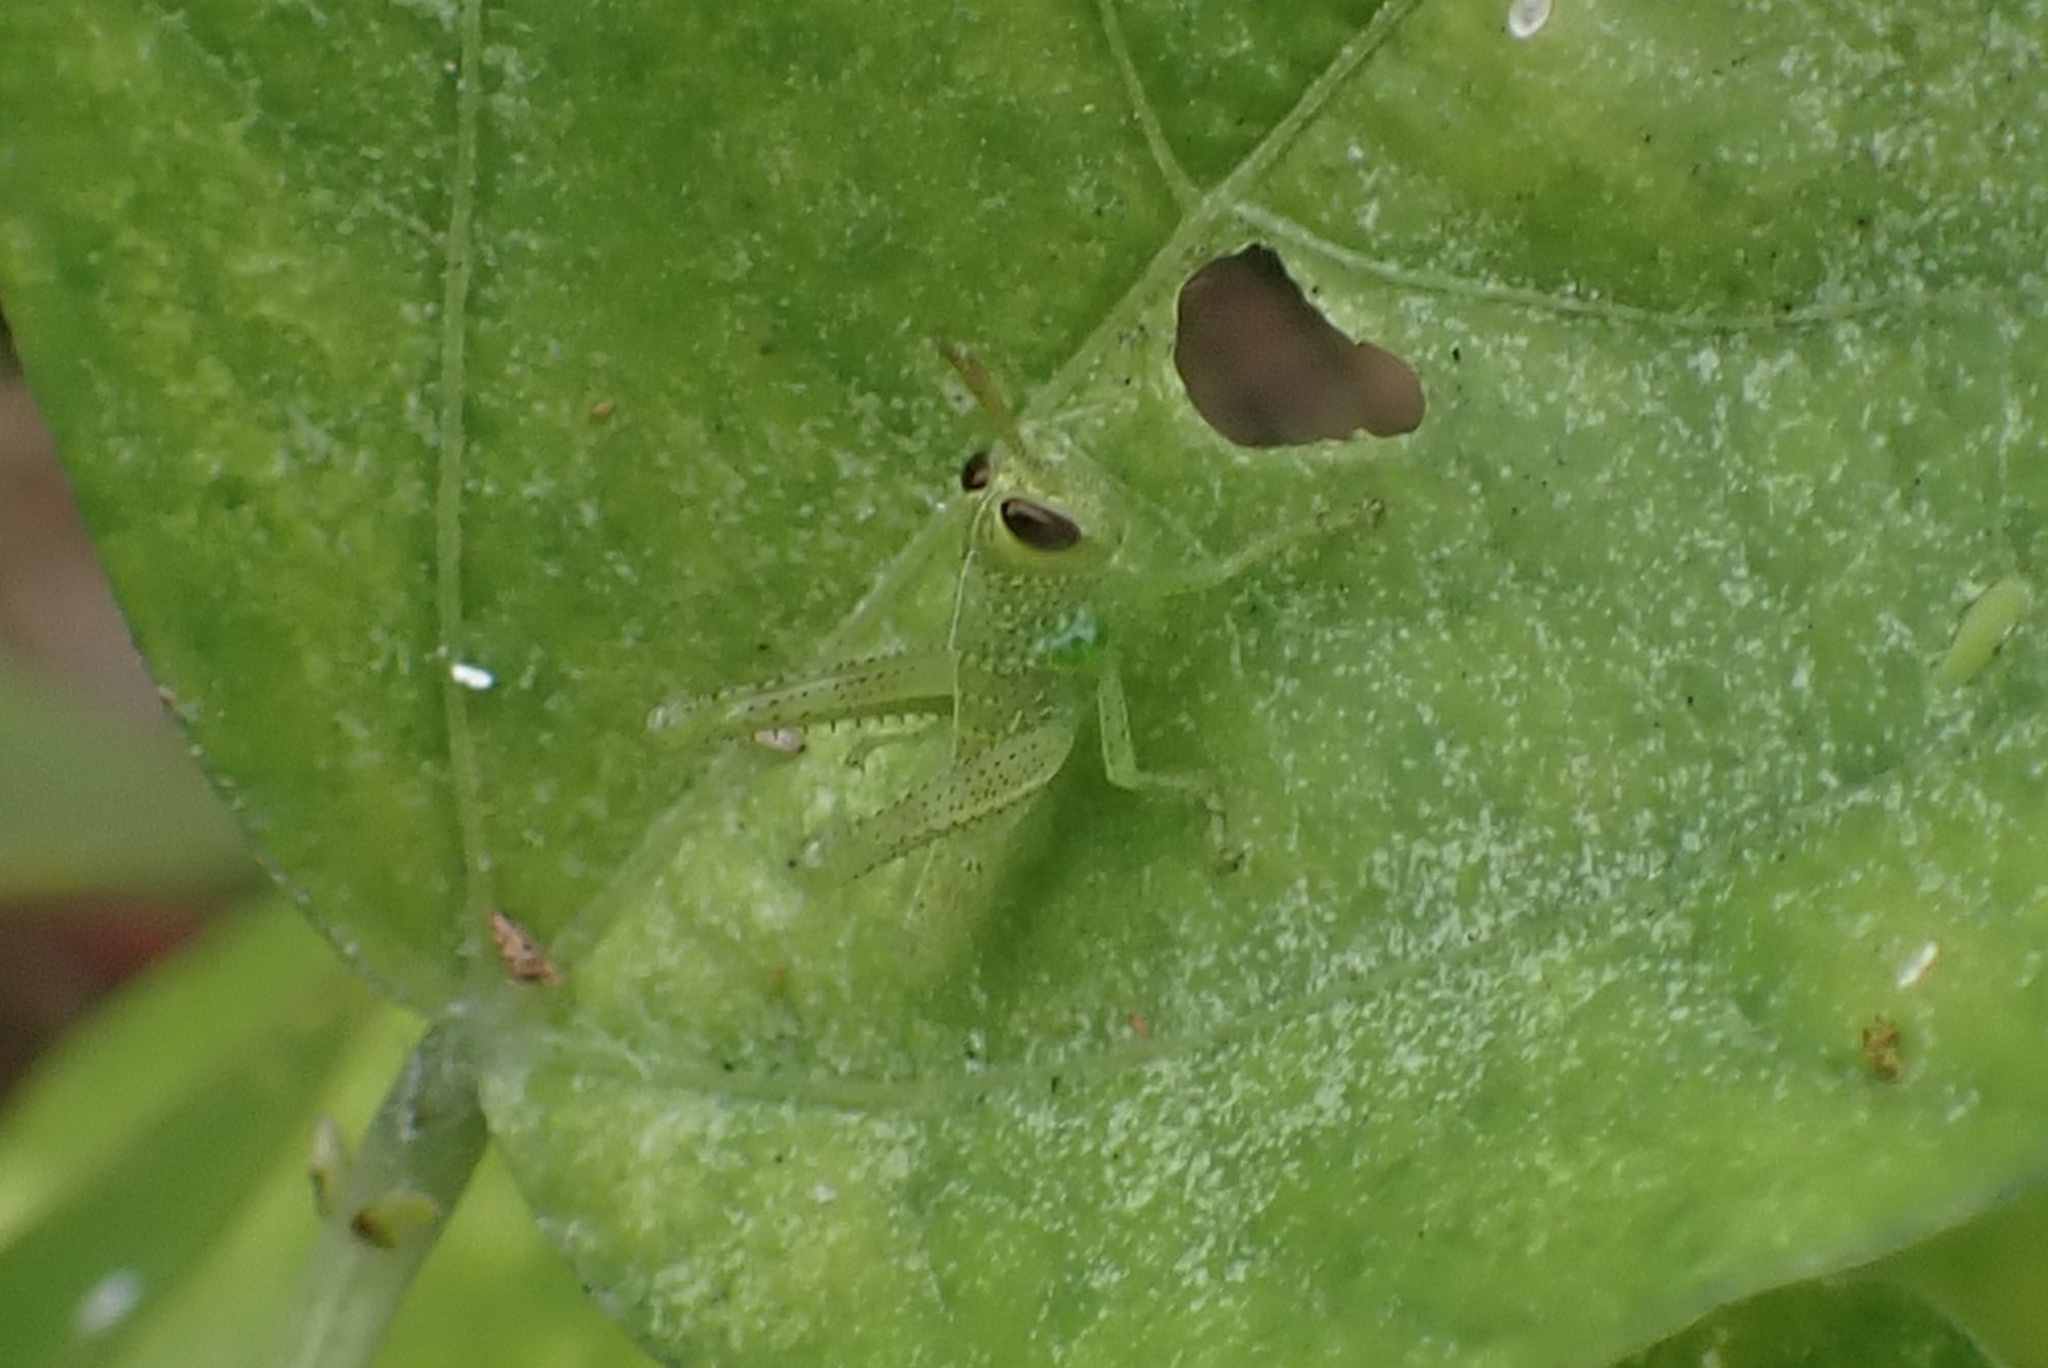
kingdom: Animalia
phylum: Arthropoda
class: Insecta
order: Orthoptera
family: Acrididae
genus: Valanga
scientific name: Valanga nigricornis
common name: Javanese bird grasshopper
